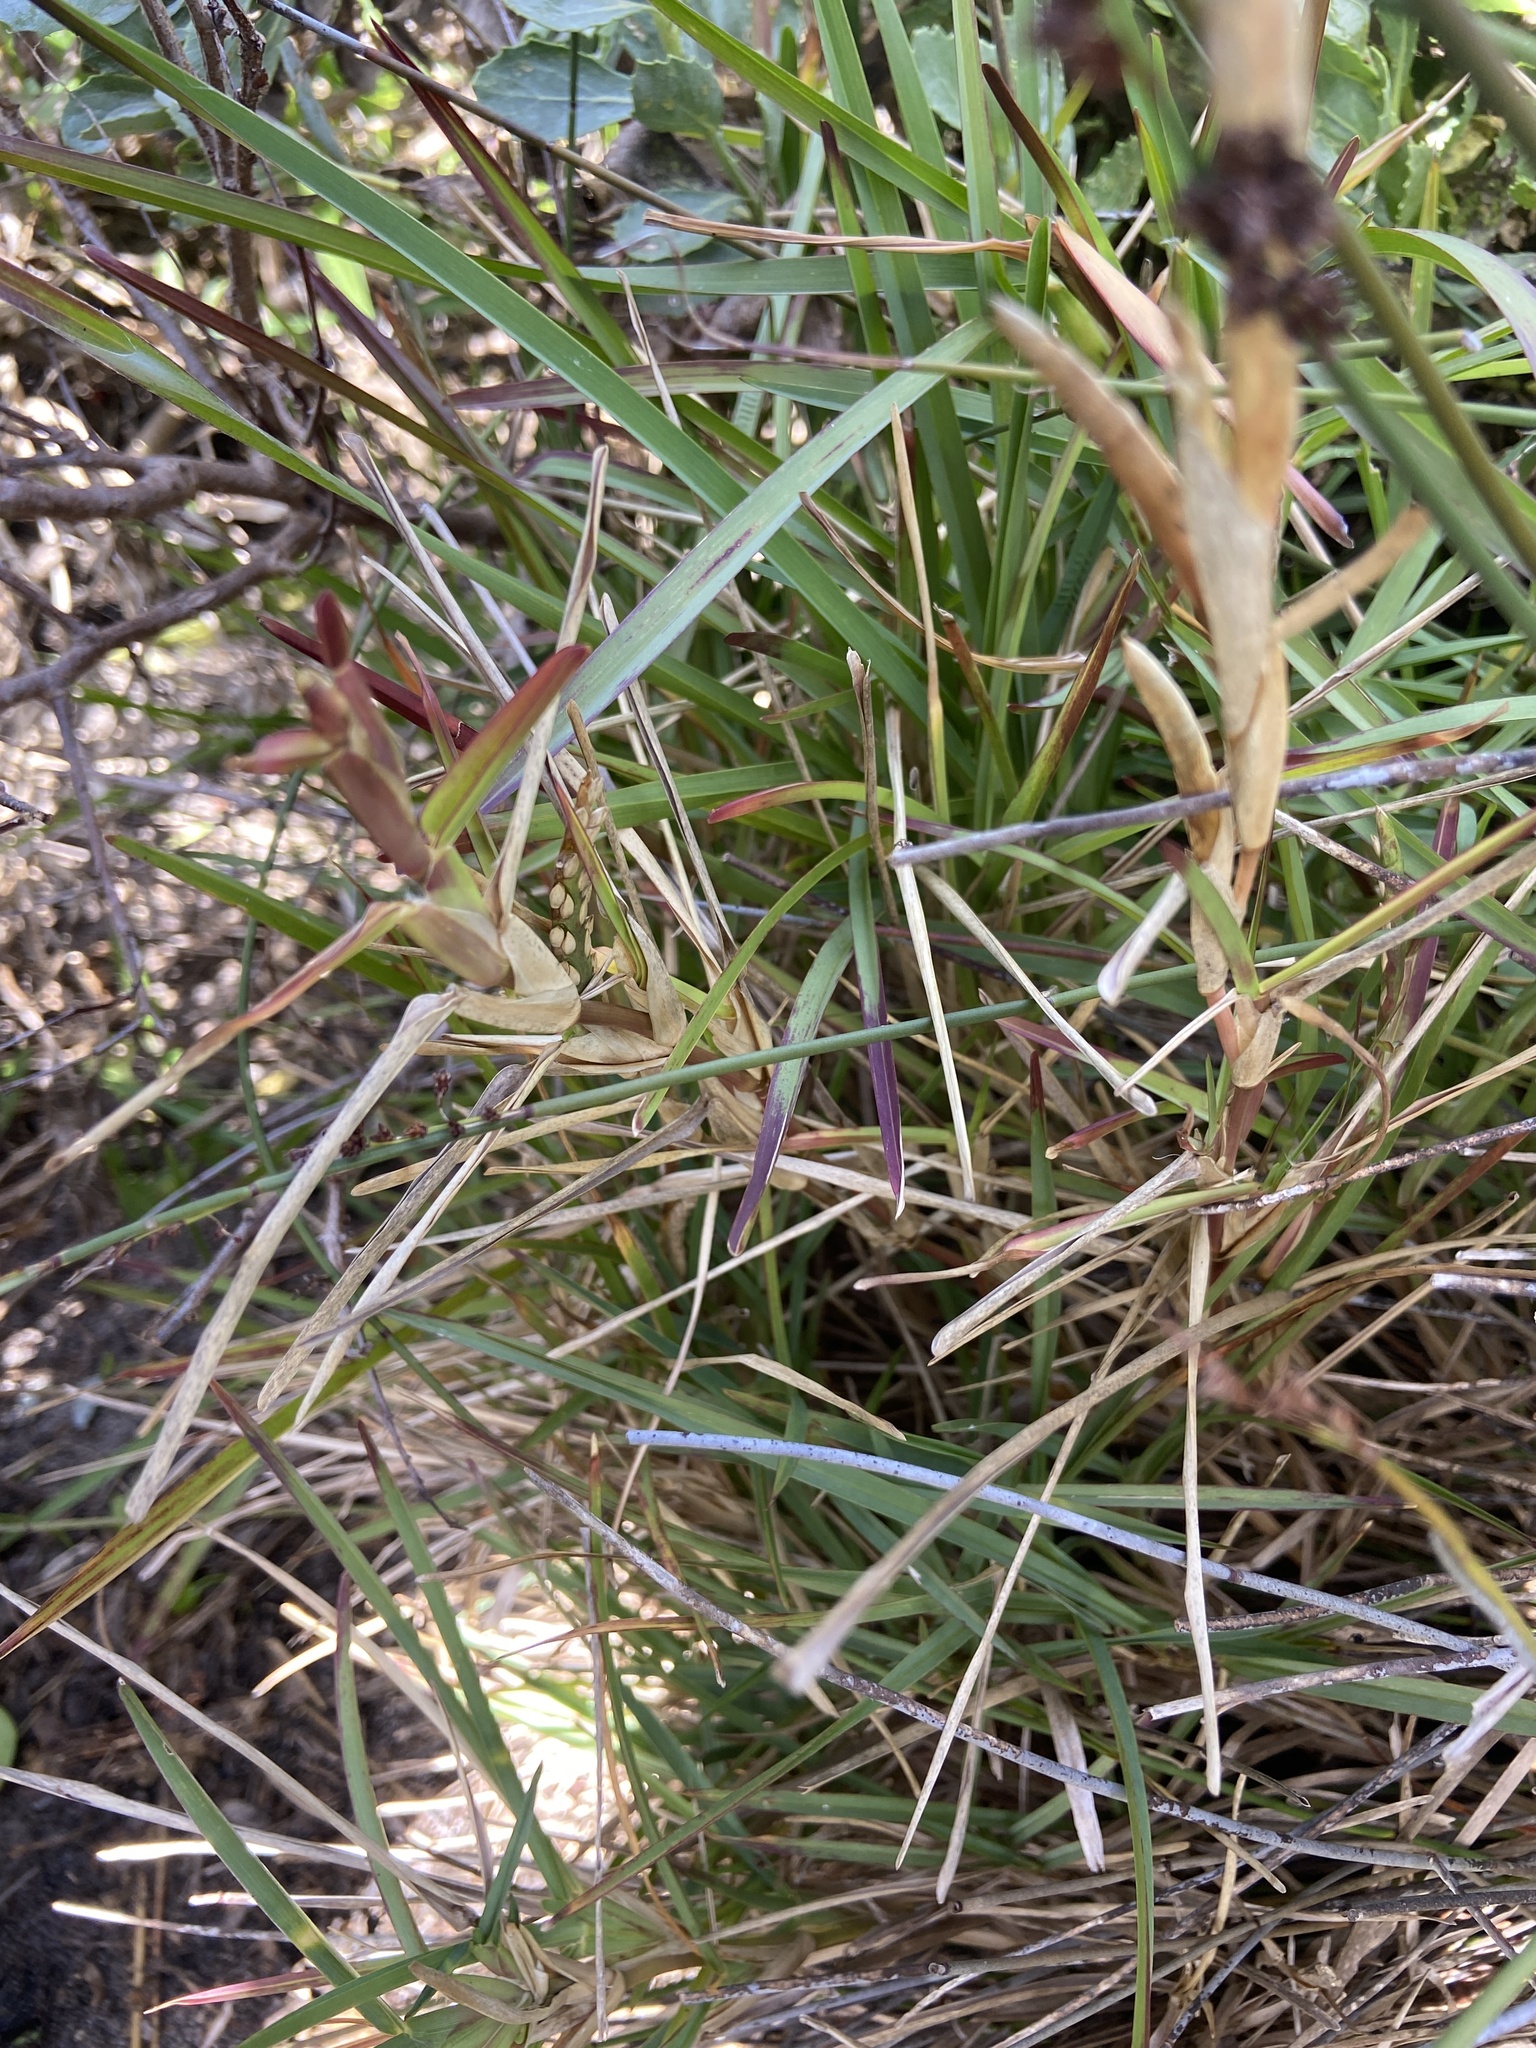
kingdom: Plantae
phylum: Tracheophyta
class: Liliopsida
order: Poales
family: Poaceae
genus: Stenotaphrum
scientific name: Stenotaphrum secundatum
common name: St. augustine grass
